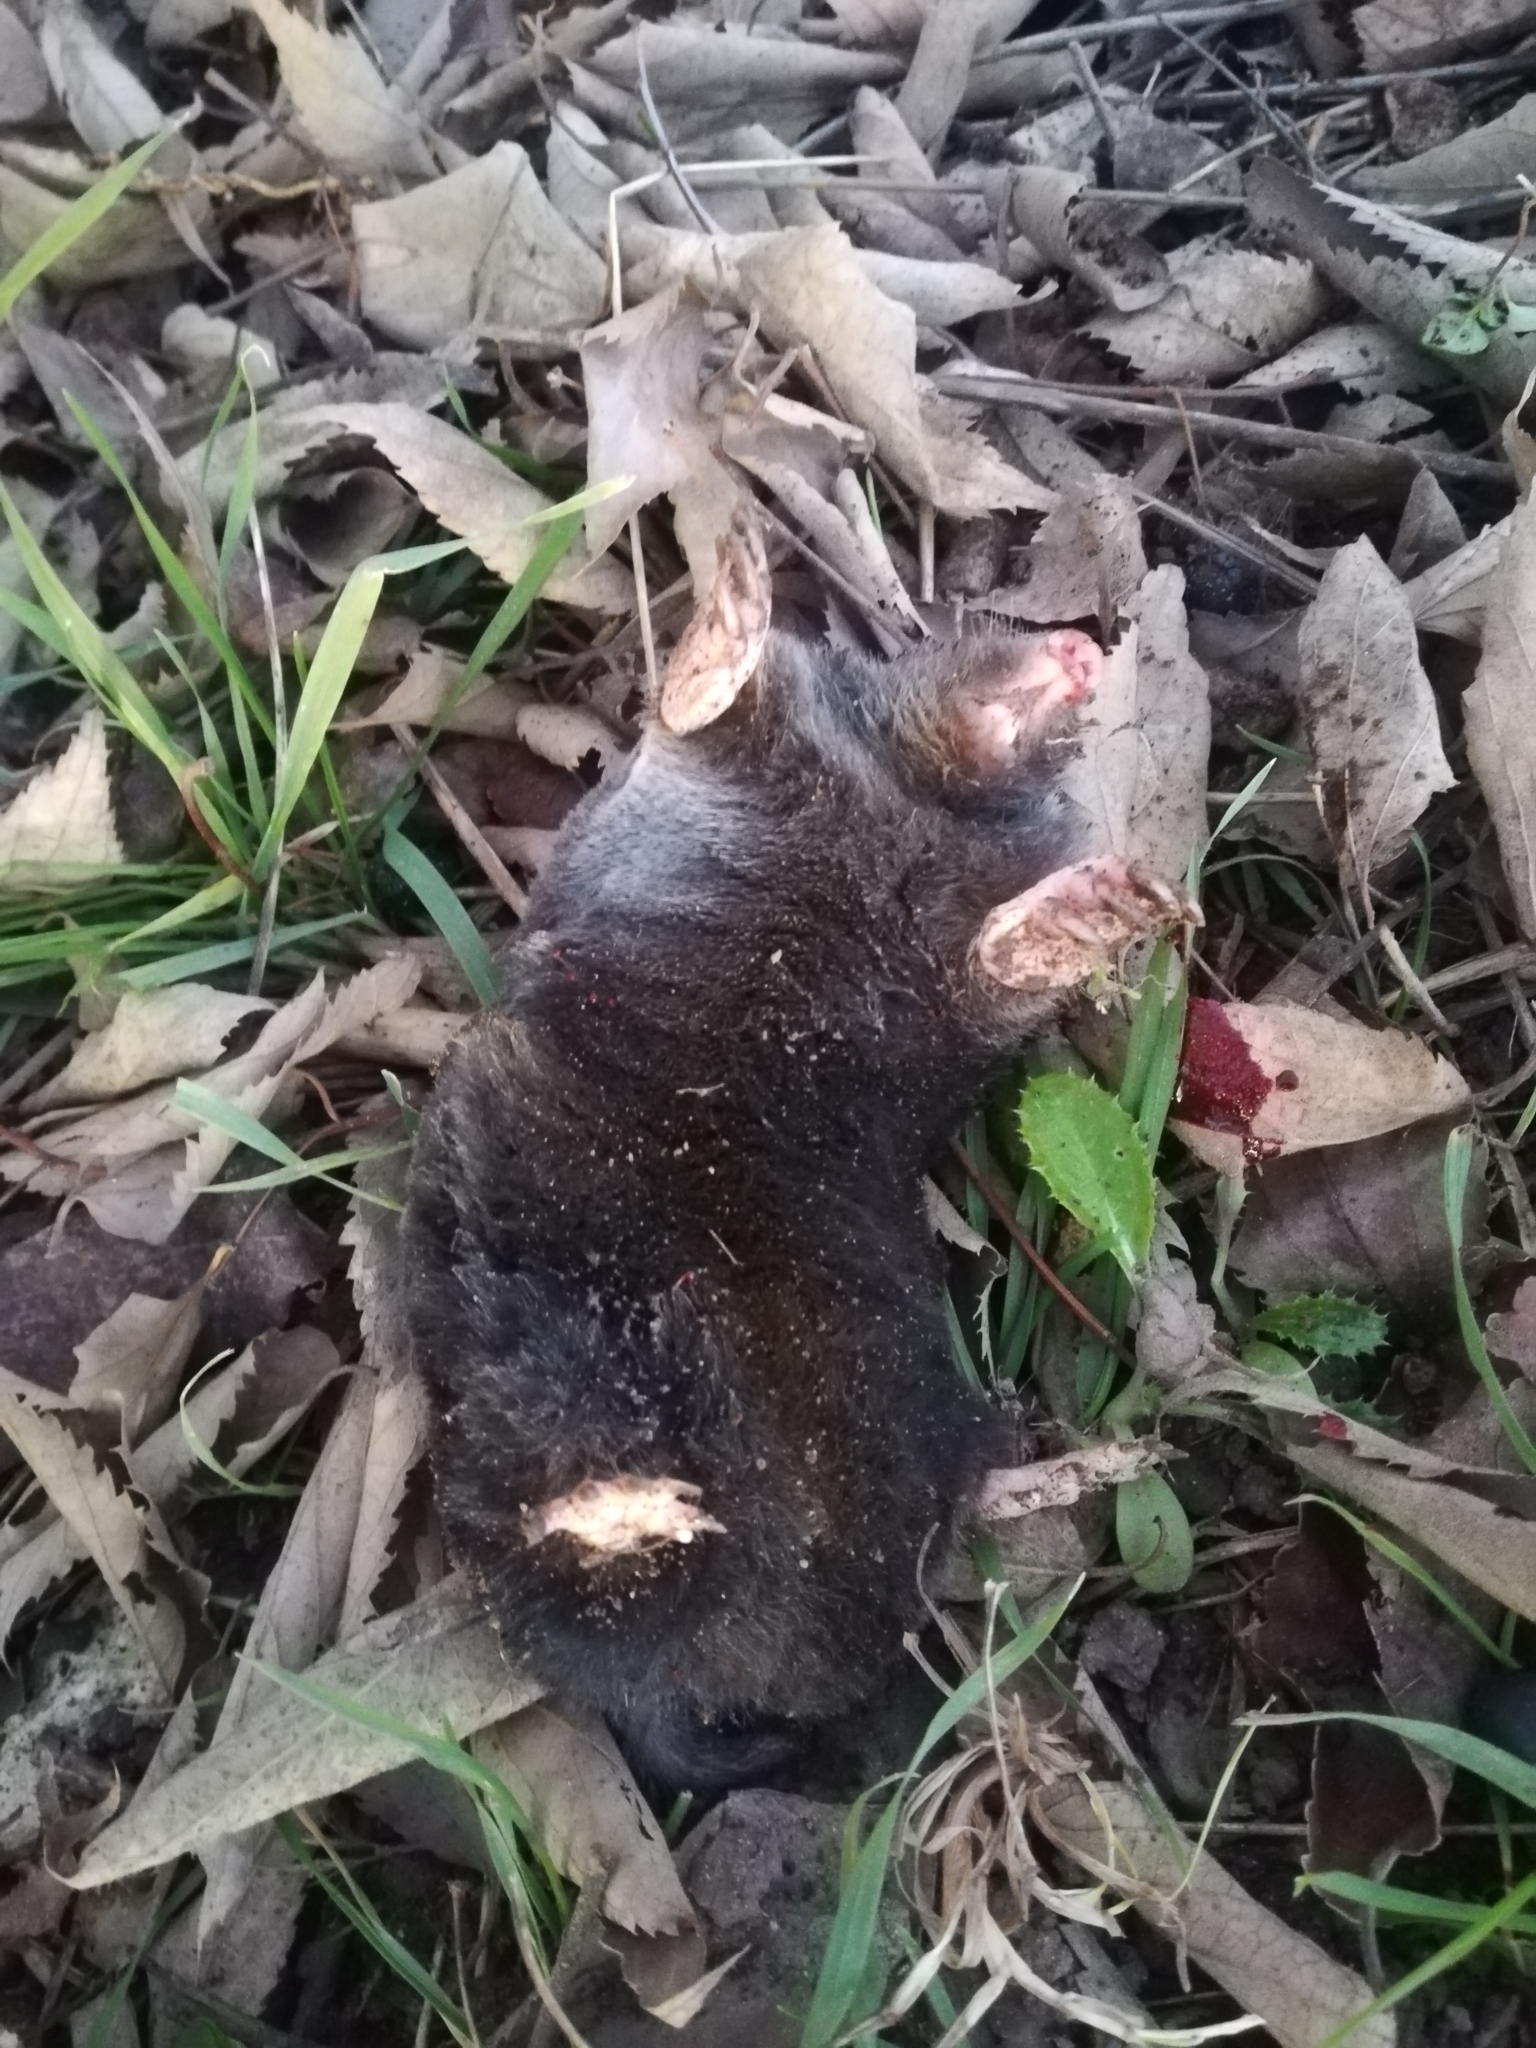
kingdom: Animalia
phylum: Chordata
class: Mammalia
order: Soricomorpha
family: Talpidae
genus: Talpa
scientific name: Talpa europaea
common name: European mole
